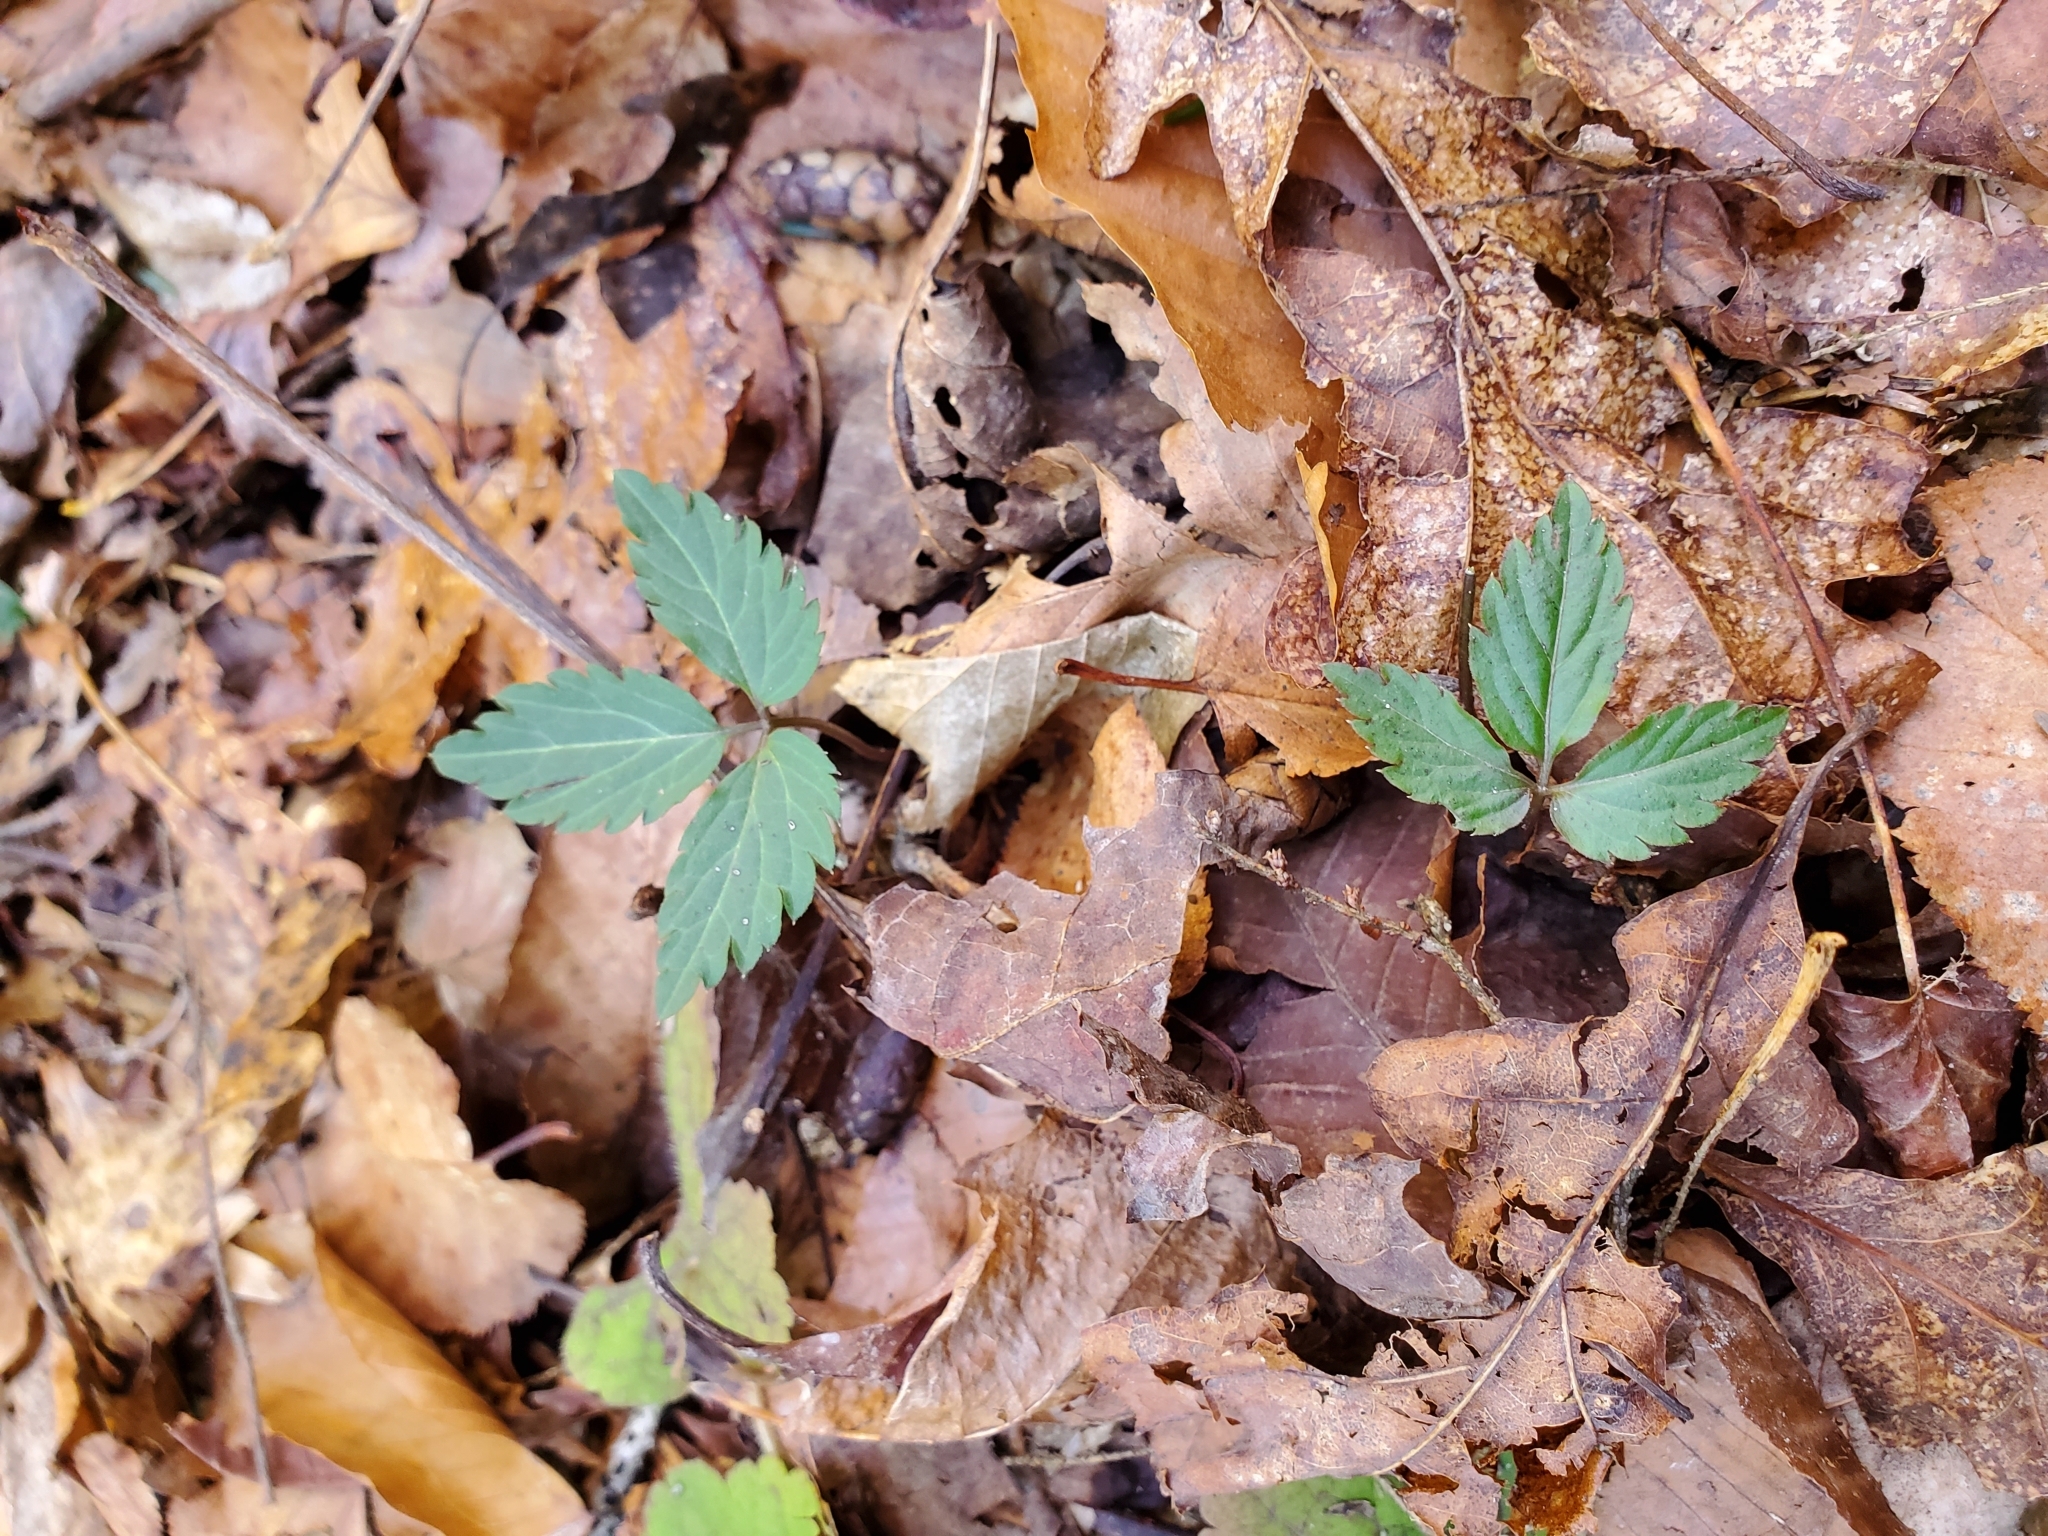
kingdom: Plantae
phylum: Tracheophyta
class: Magnoliopsida
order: Brassicales
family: Brassicaceae
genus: Cardamine
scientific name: Cardamine diphylla
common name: Broad-leaved toothwort
